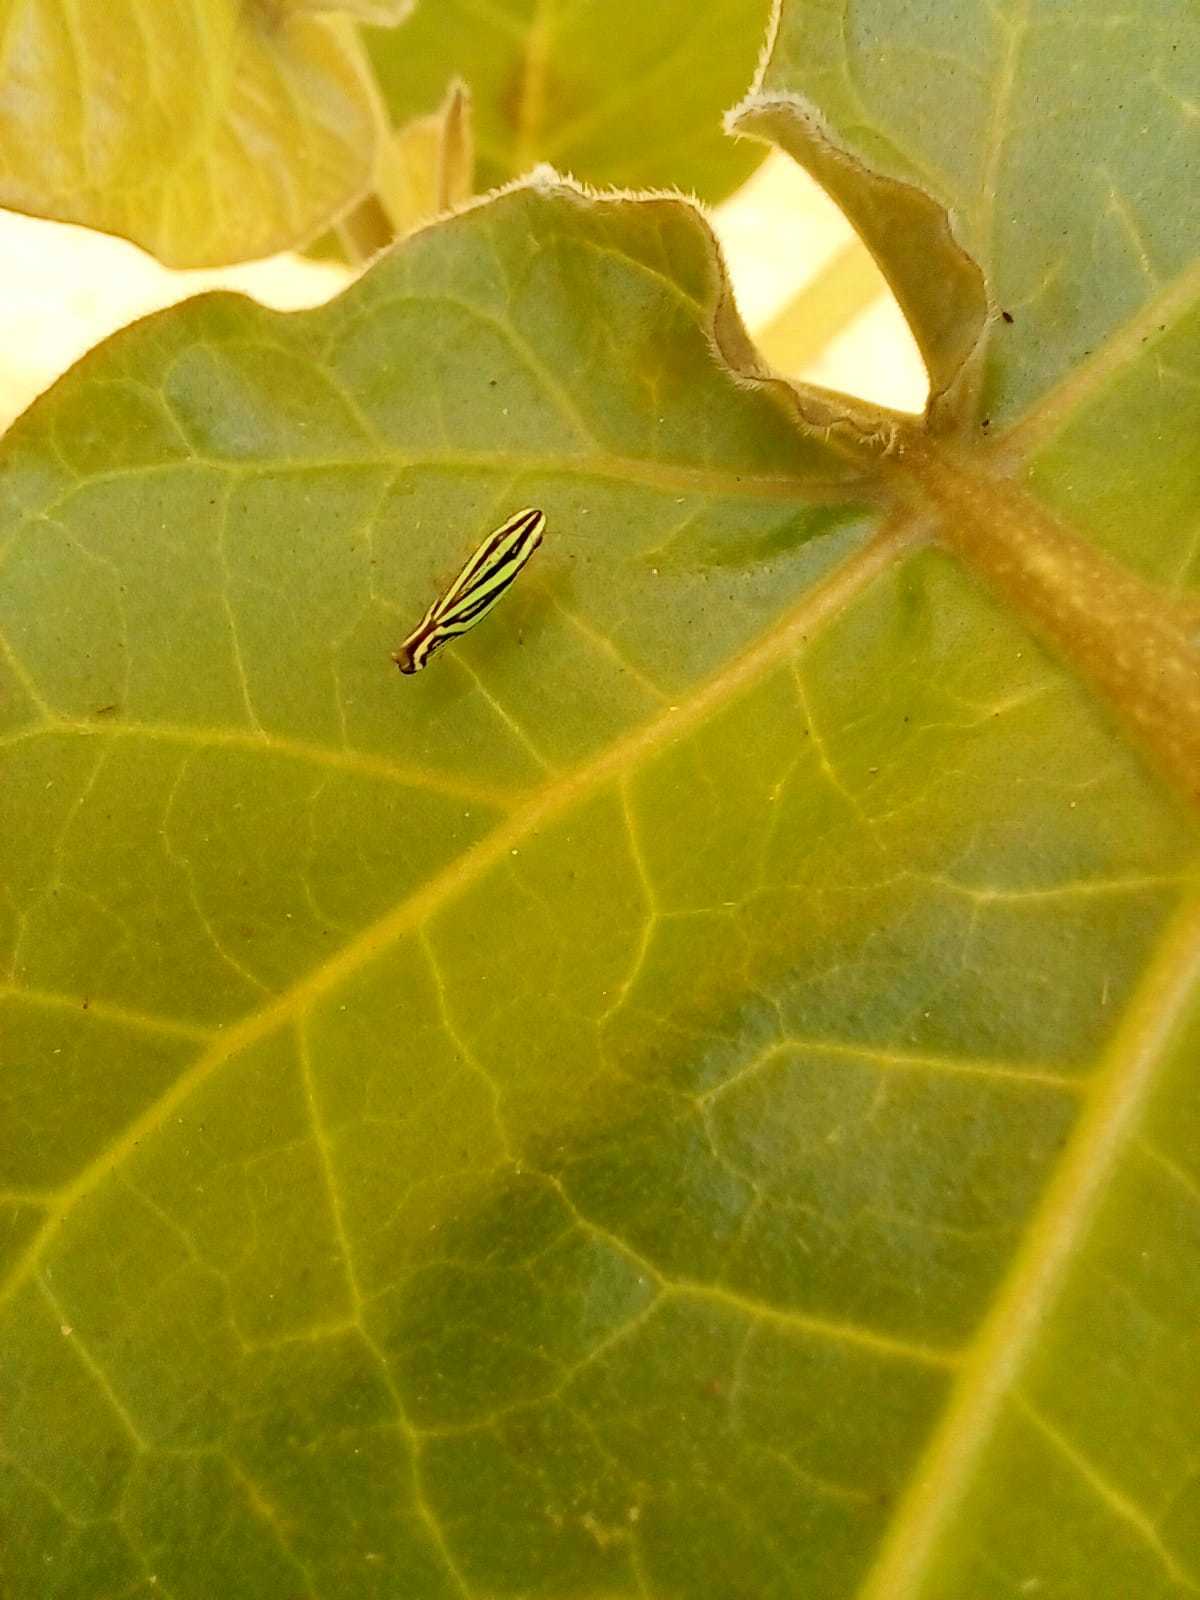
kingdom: Animalia
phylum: Arthropoda
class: Insecta
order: Hemiptera
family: Cicadellidae
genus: Sibovia
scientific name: Sibovia sagata
